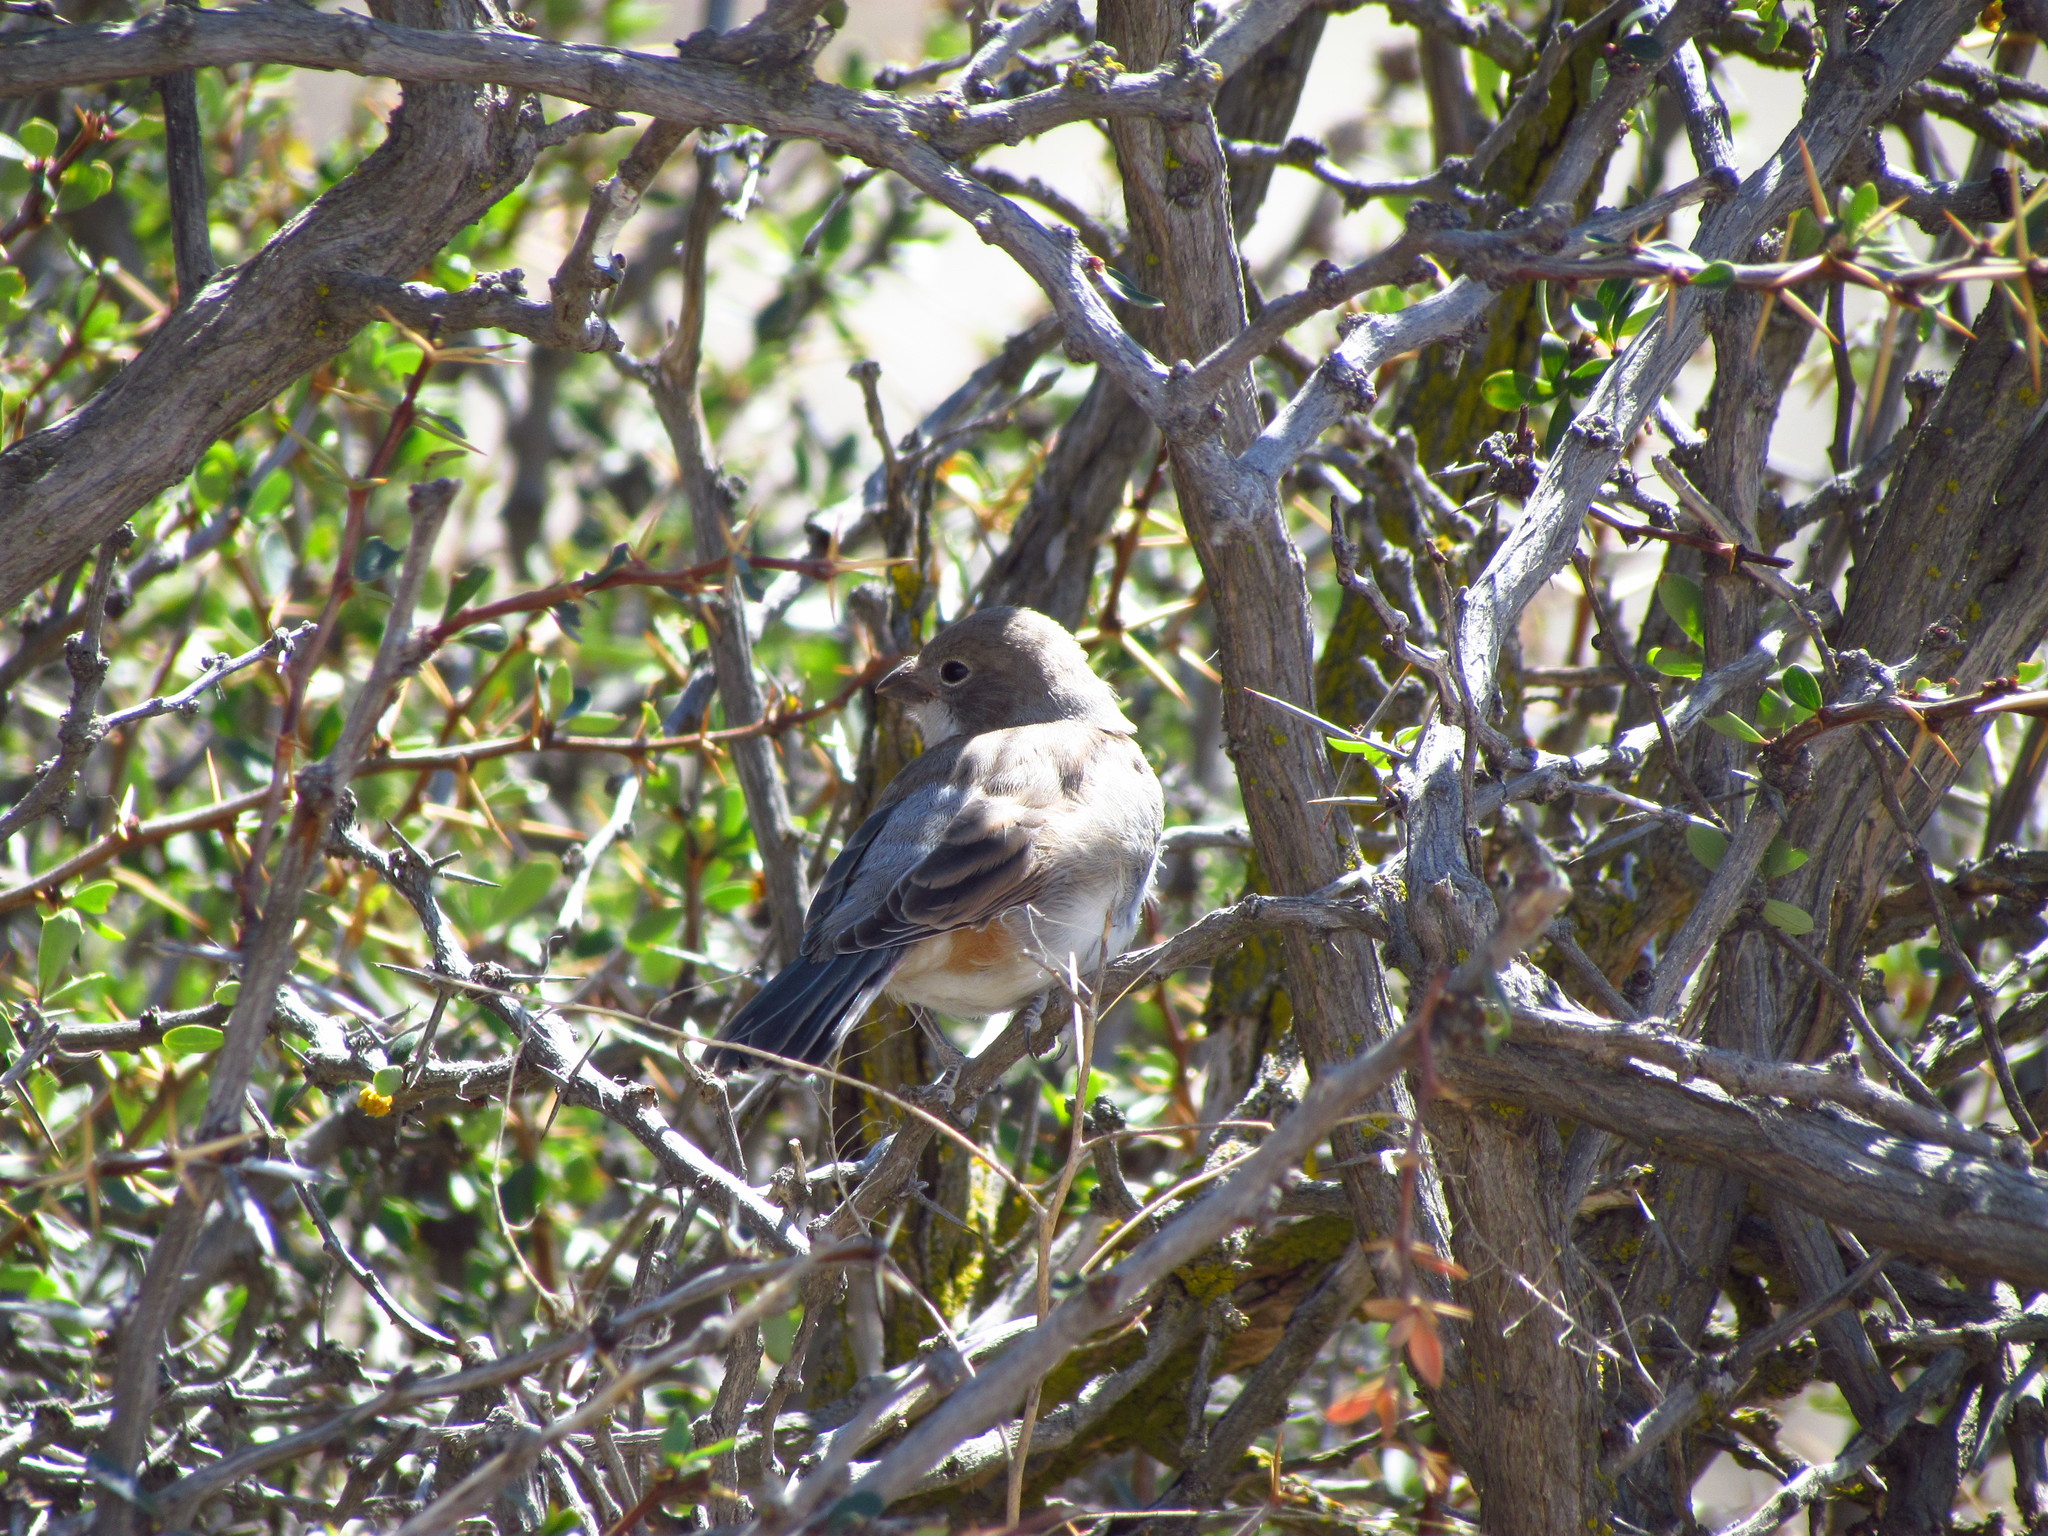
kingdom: Animalia
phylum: Chordata
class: Aves
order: Passeriformes
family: Thraupidae
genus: Diuca
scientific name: Diuca diuca
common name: Common diuca finch
